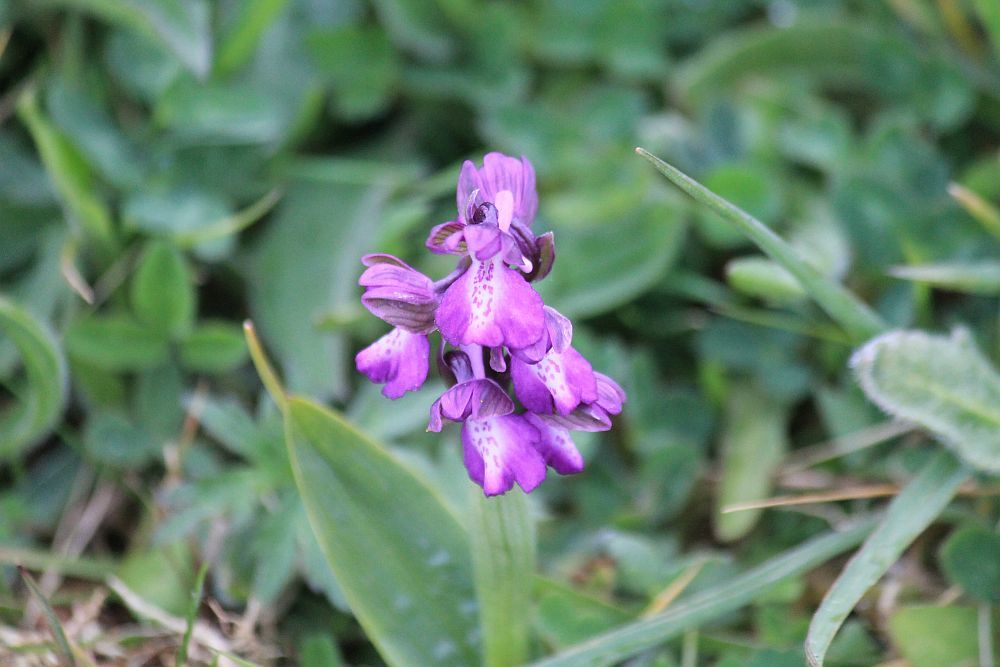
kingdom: Plantae
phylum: Tracheophyta
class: Liliopsida
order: Asparagales
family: Orchidaceae
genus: Anacamptis
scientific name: Anacamptis morio
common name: Green-winged orchid
